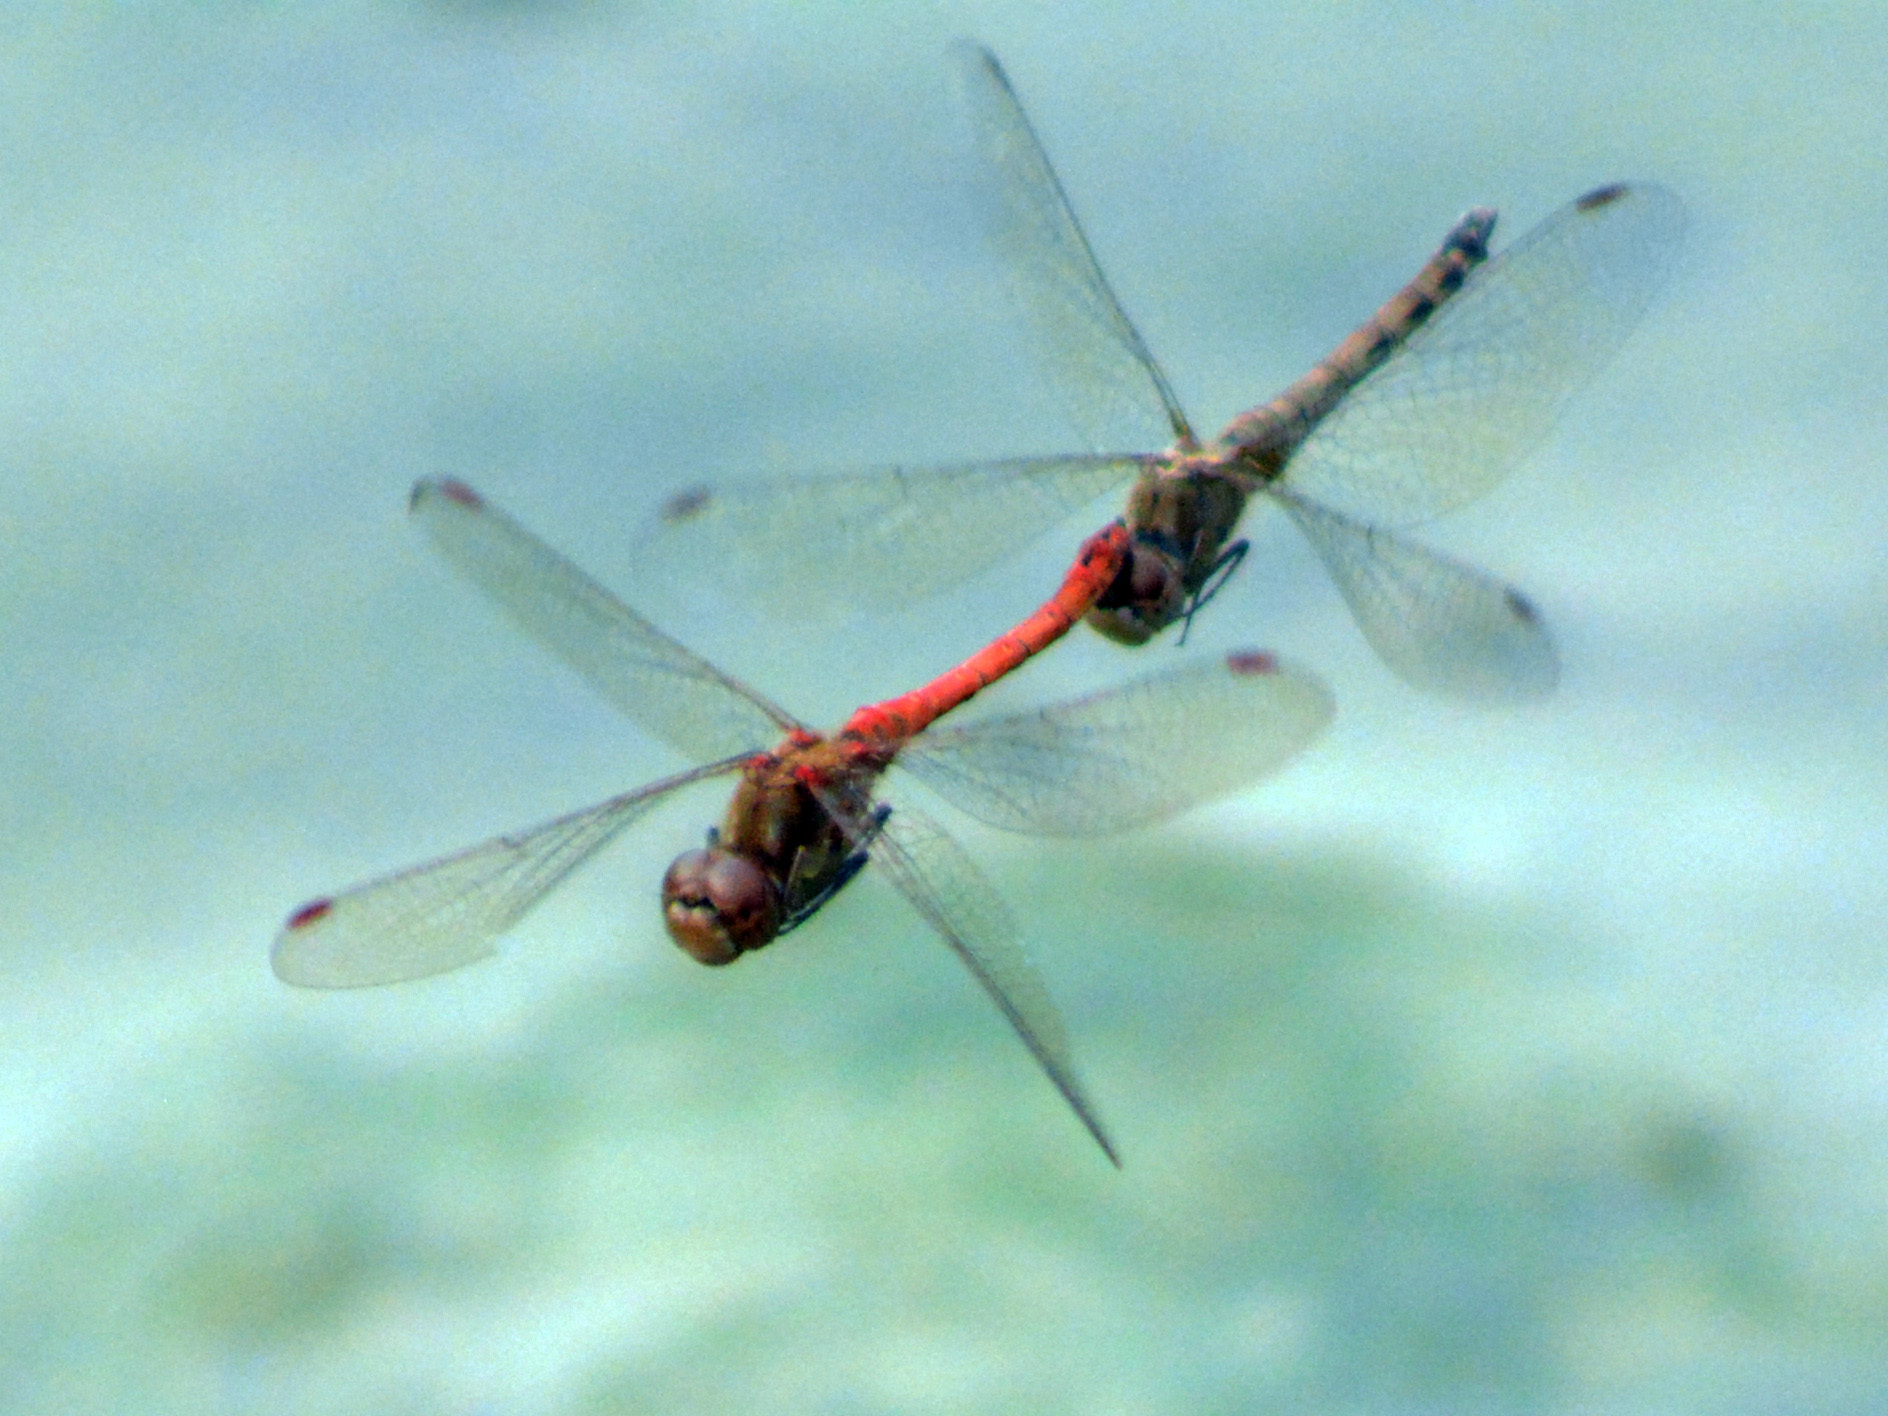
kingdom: Animalia
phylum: Arthropoda
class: Insecta
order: Odonata
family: Libellulidae
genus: Sympetrum
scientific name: Sympetrum striolatum
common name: Common darter
